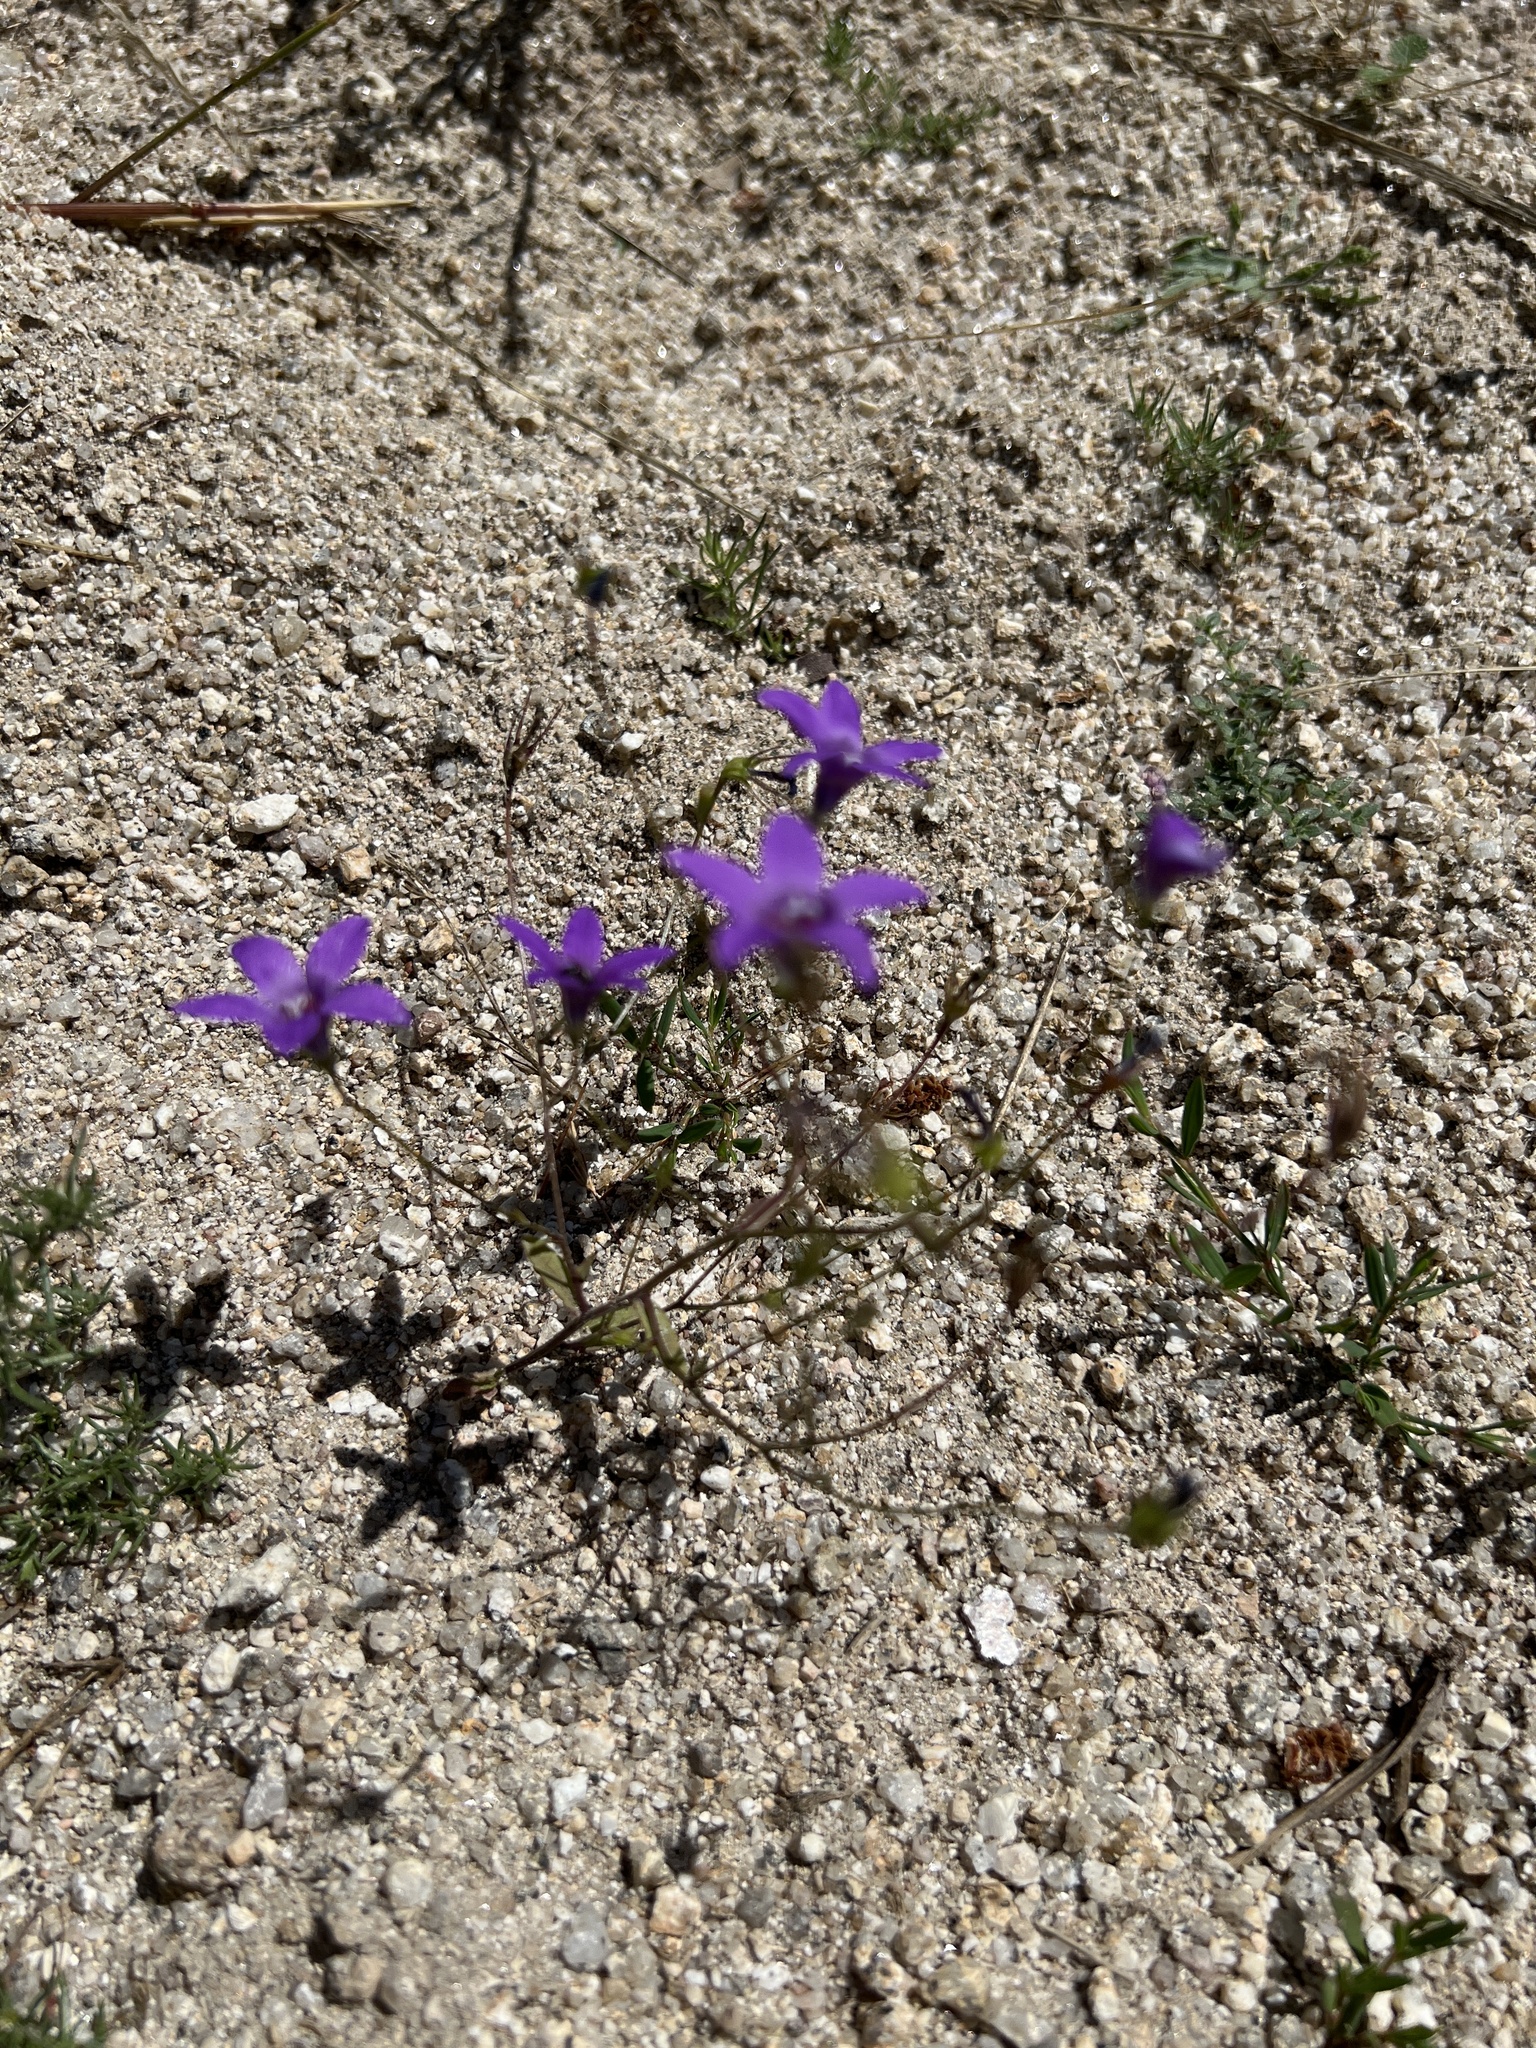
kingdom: Plantae
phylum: Tracheophyta
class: Magnoliopsida
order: Asterales
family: Campanulaceae
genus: Campanula
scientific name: Campanula lusitanica
